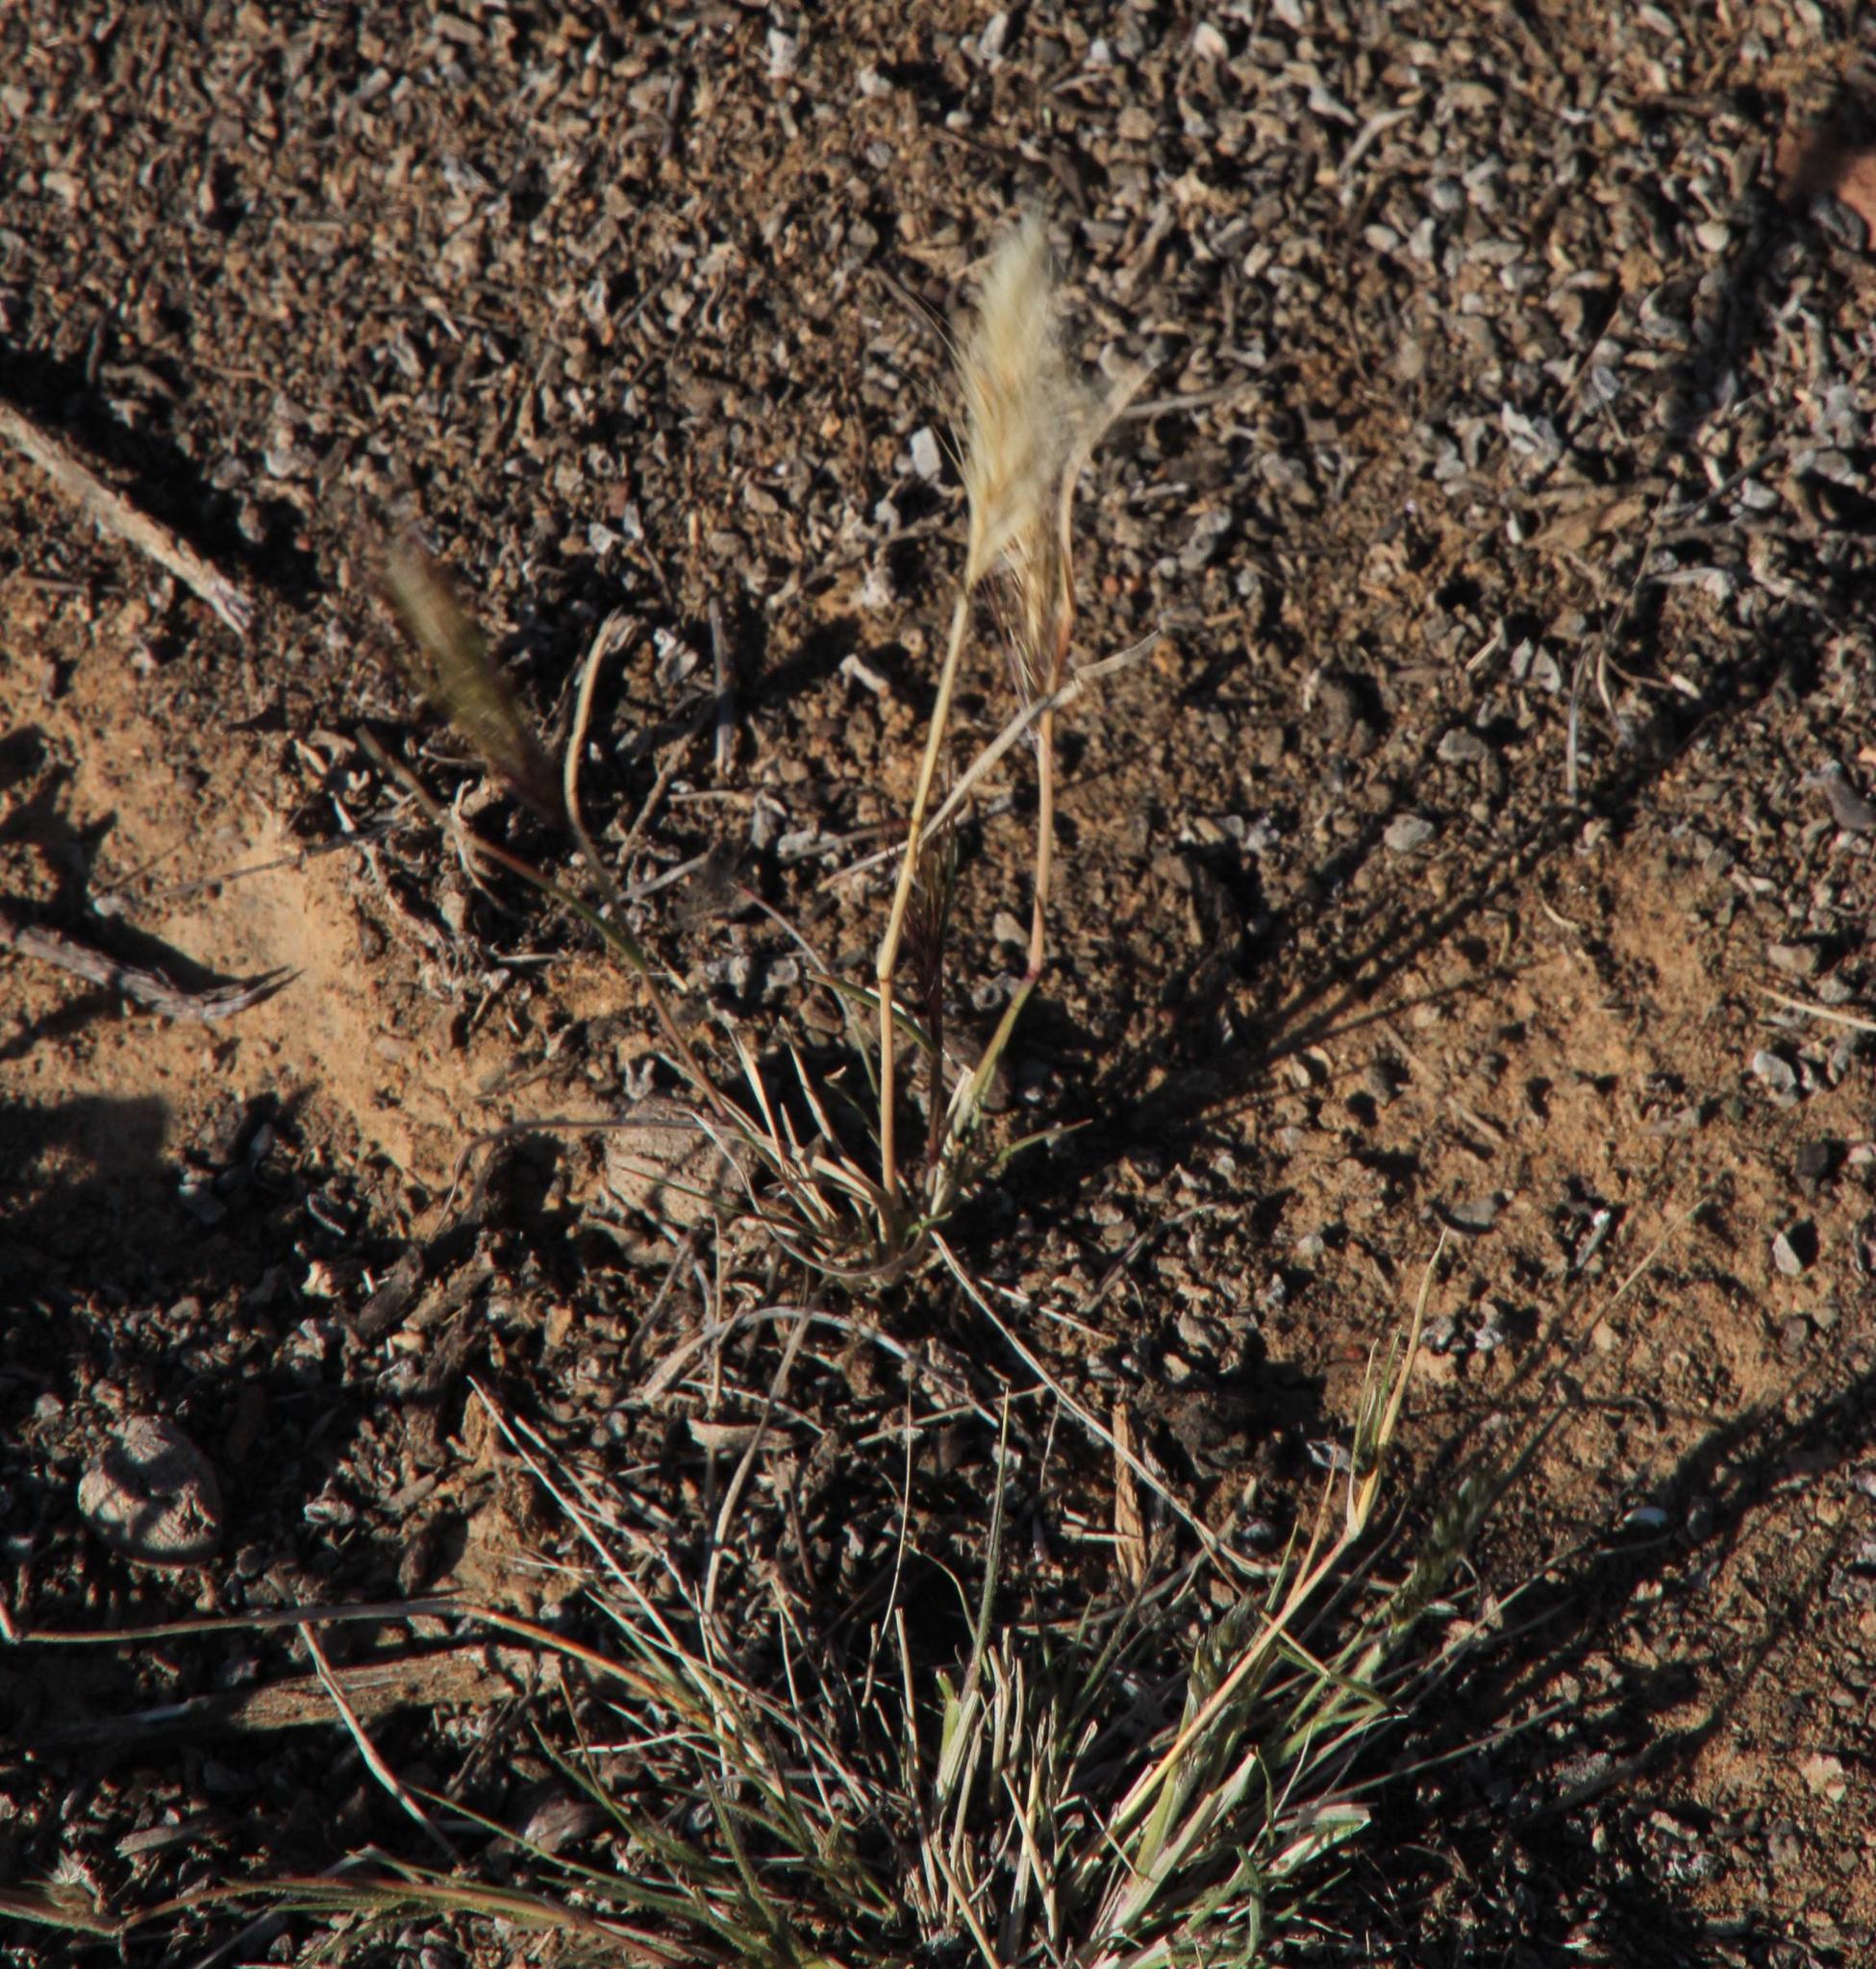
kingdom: Plantae
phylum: Tracheophyta
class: Liliopsida
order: Poales
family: Poaceae
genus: Aristida
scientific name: Aristida congesta
